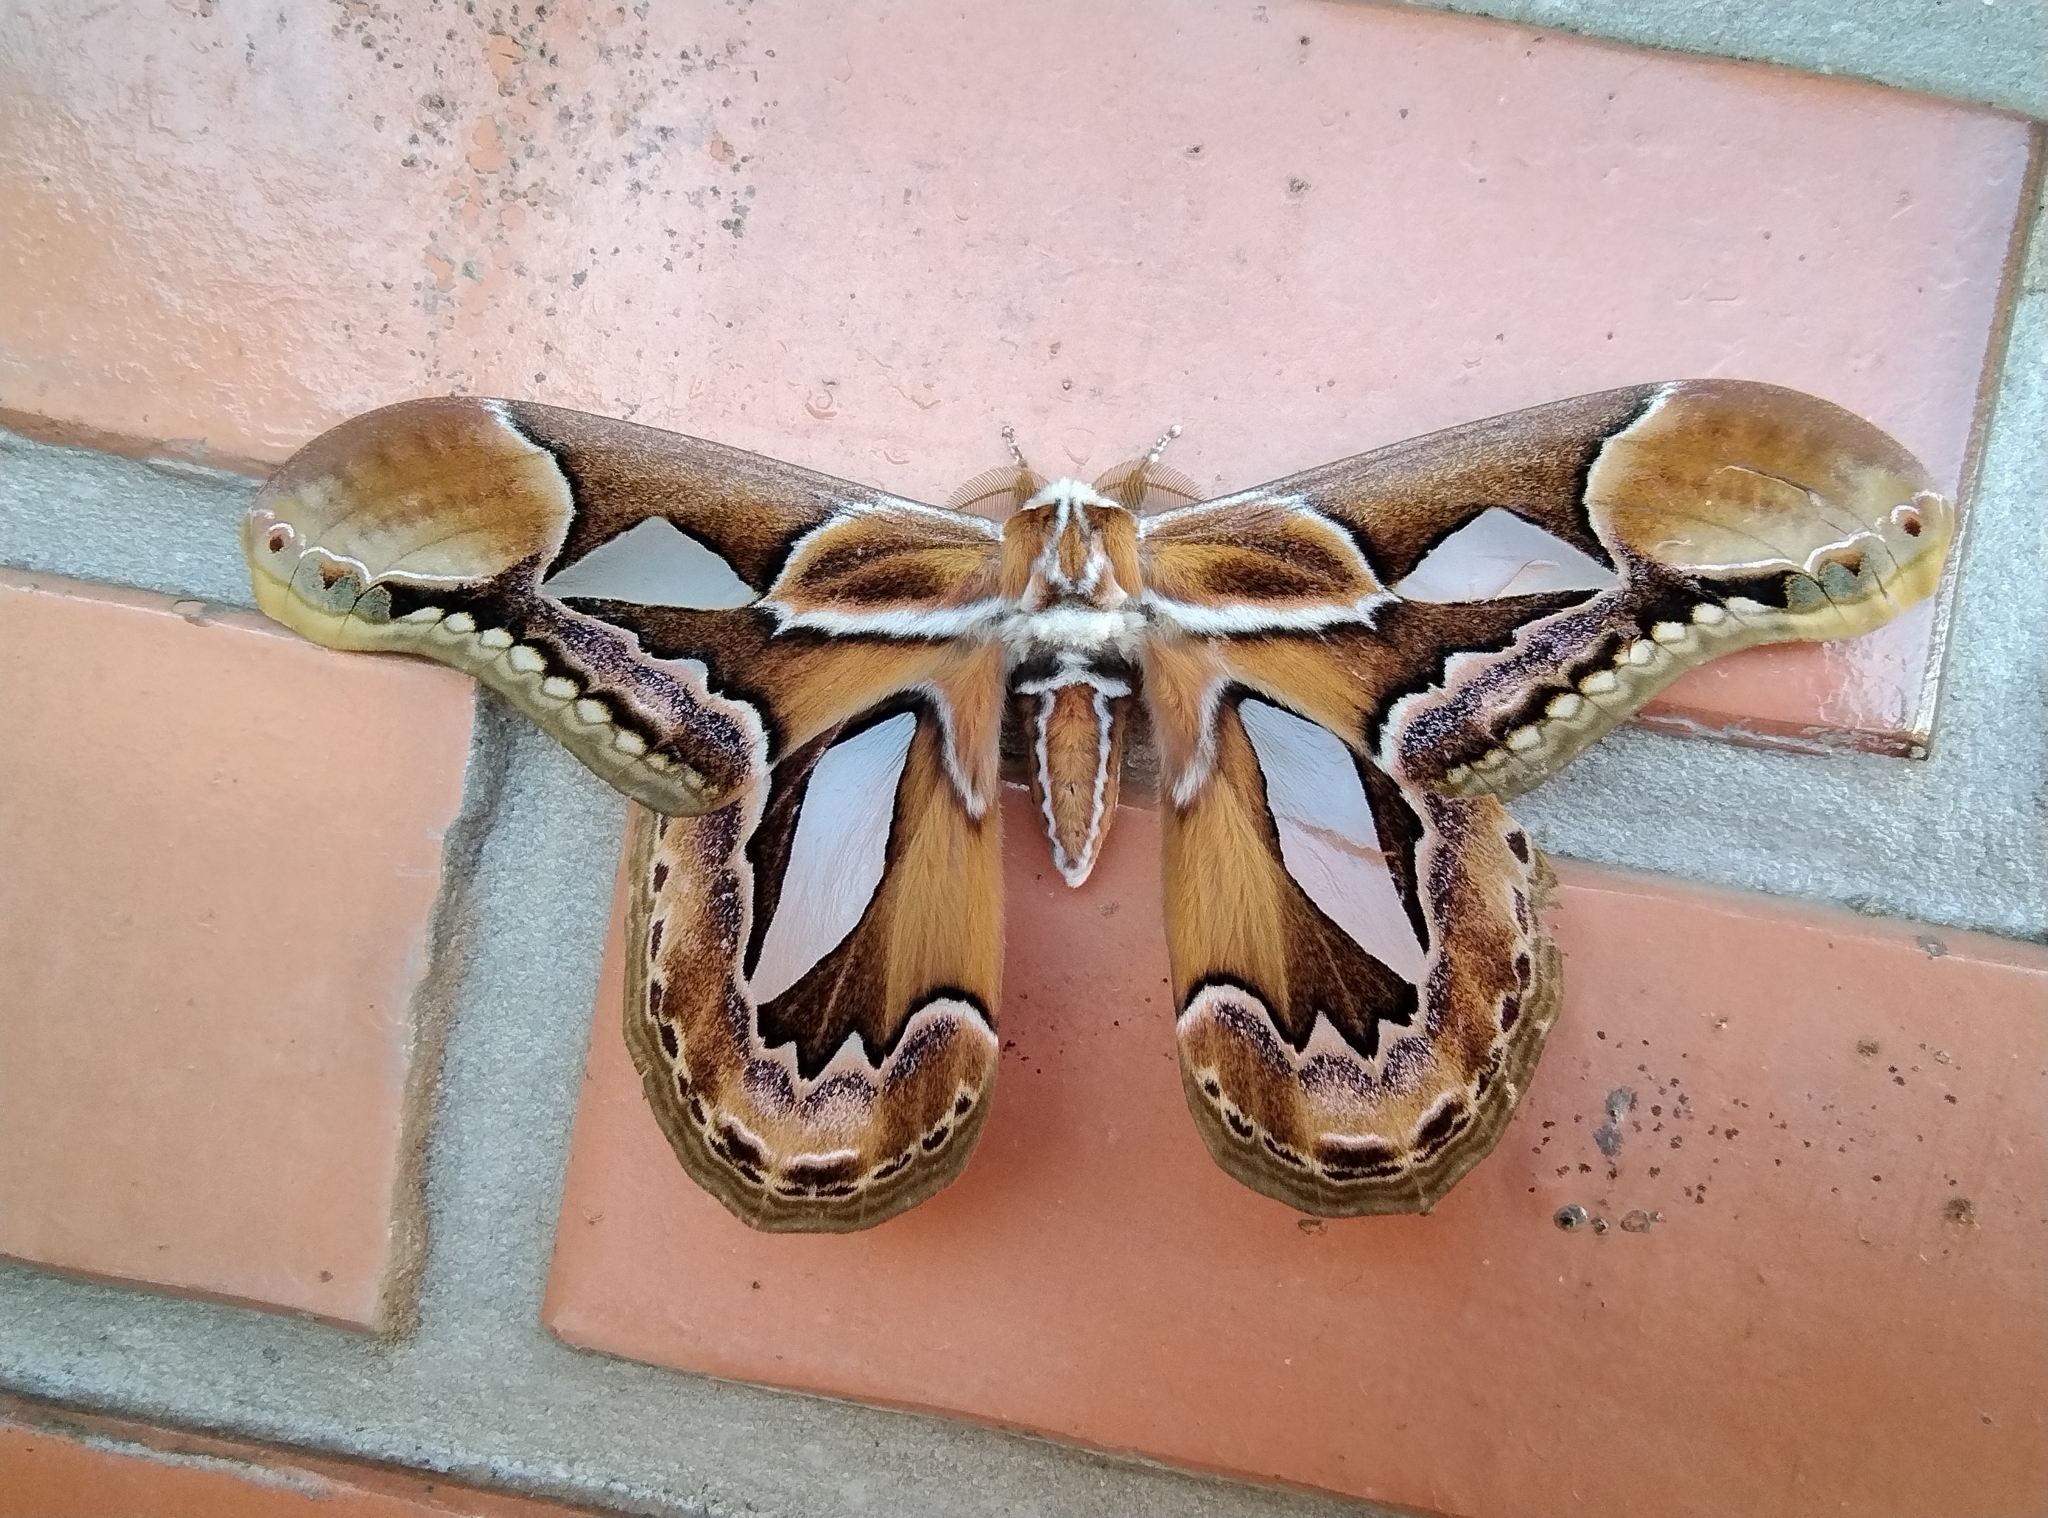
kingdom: Animalia
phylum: Arthropoda
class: Insecta
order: Lepidoptera
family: Saturniidae
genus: Rothschildia
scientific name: Rothschildia hopfferi
